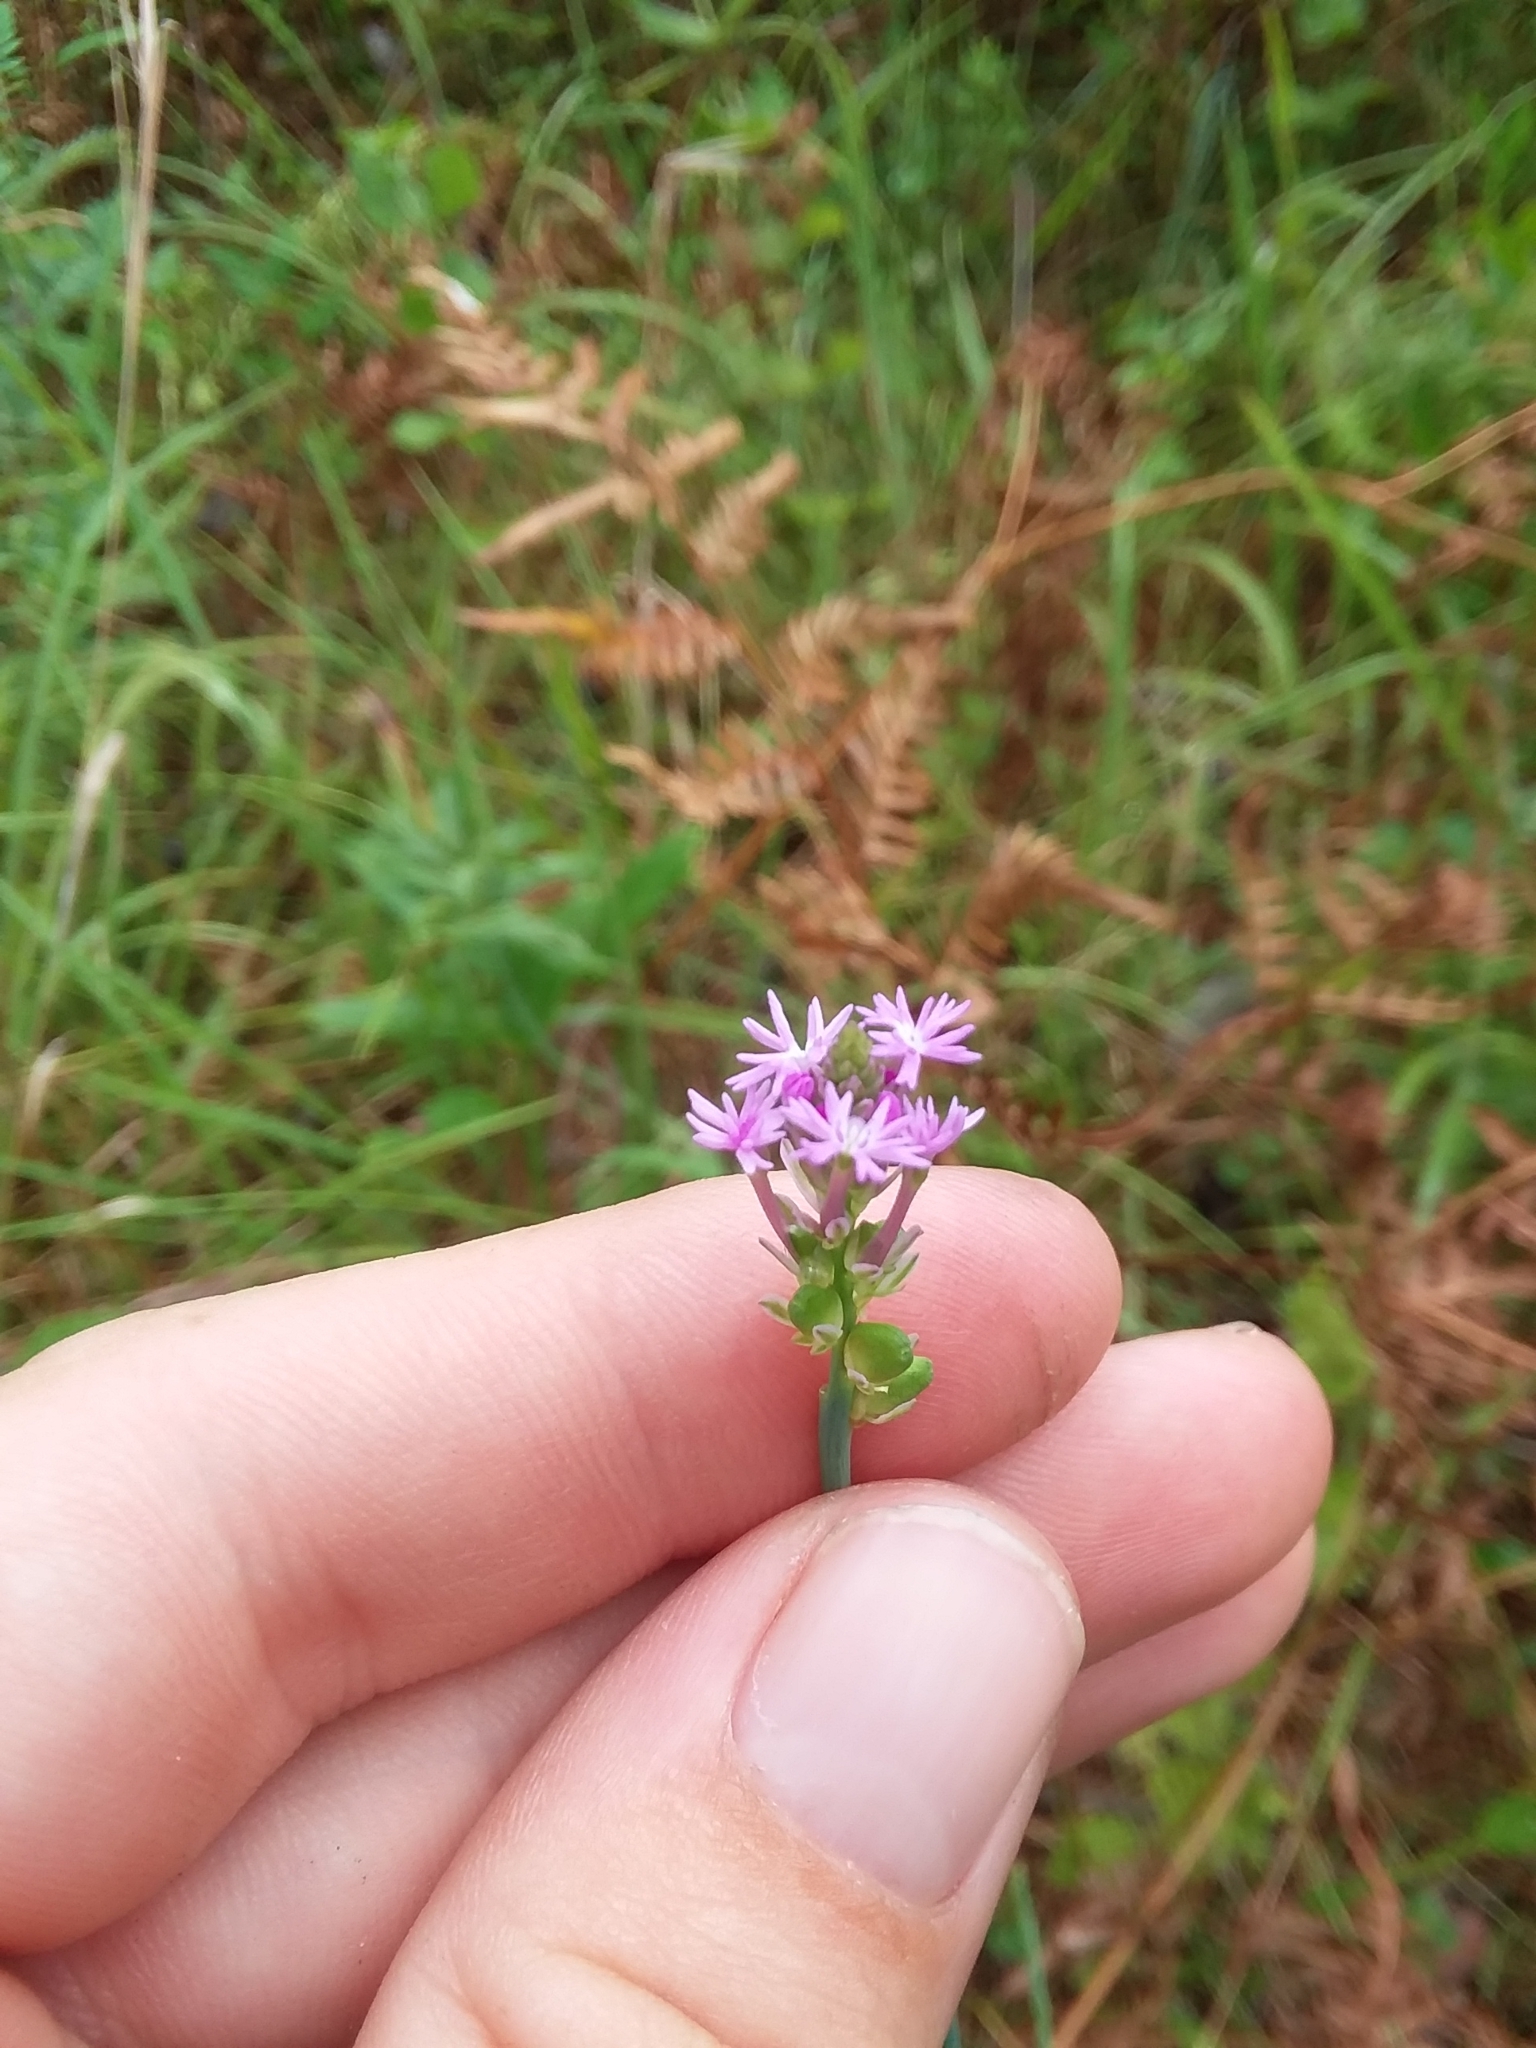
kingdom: Plantae
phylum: Tracheophyta
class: Magnoliopsida
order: Fabales
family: Polygalaceae
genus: Polygala
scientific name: Polygala incarnata
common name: Pink milkwort
